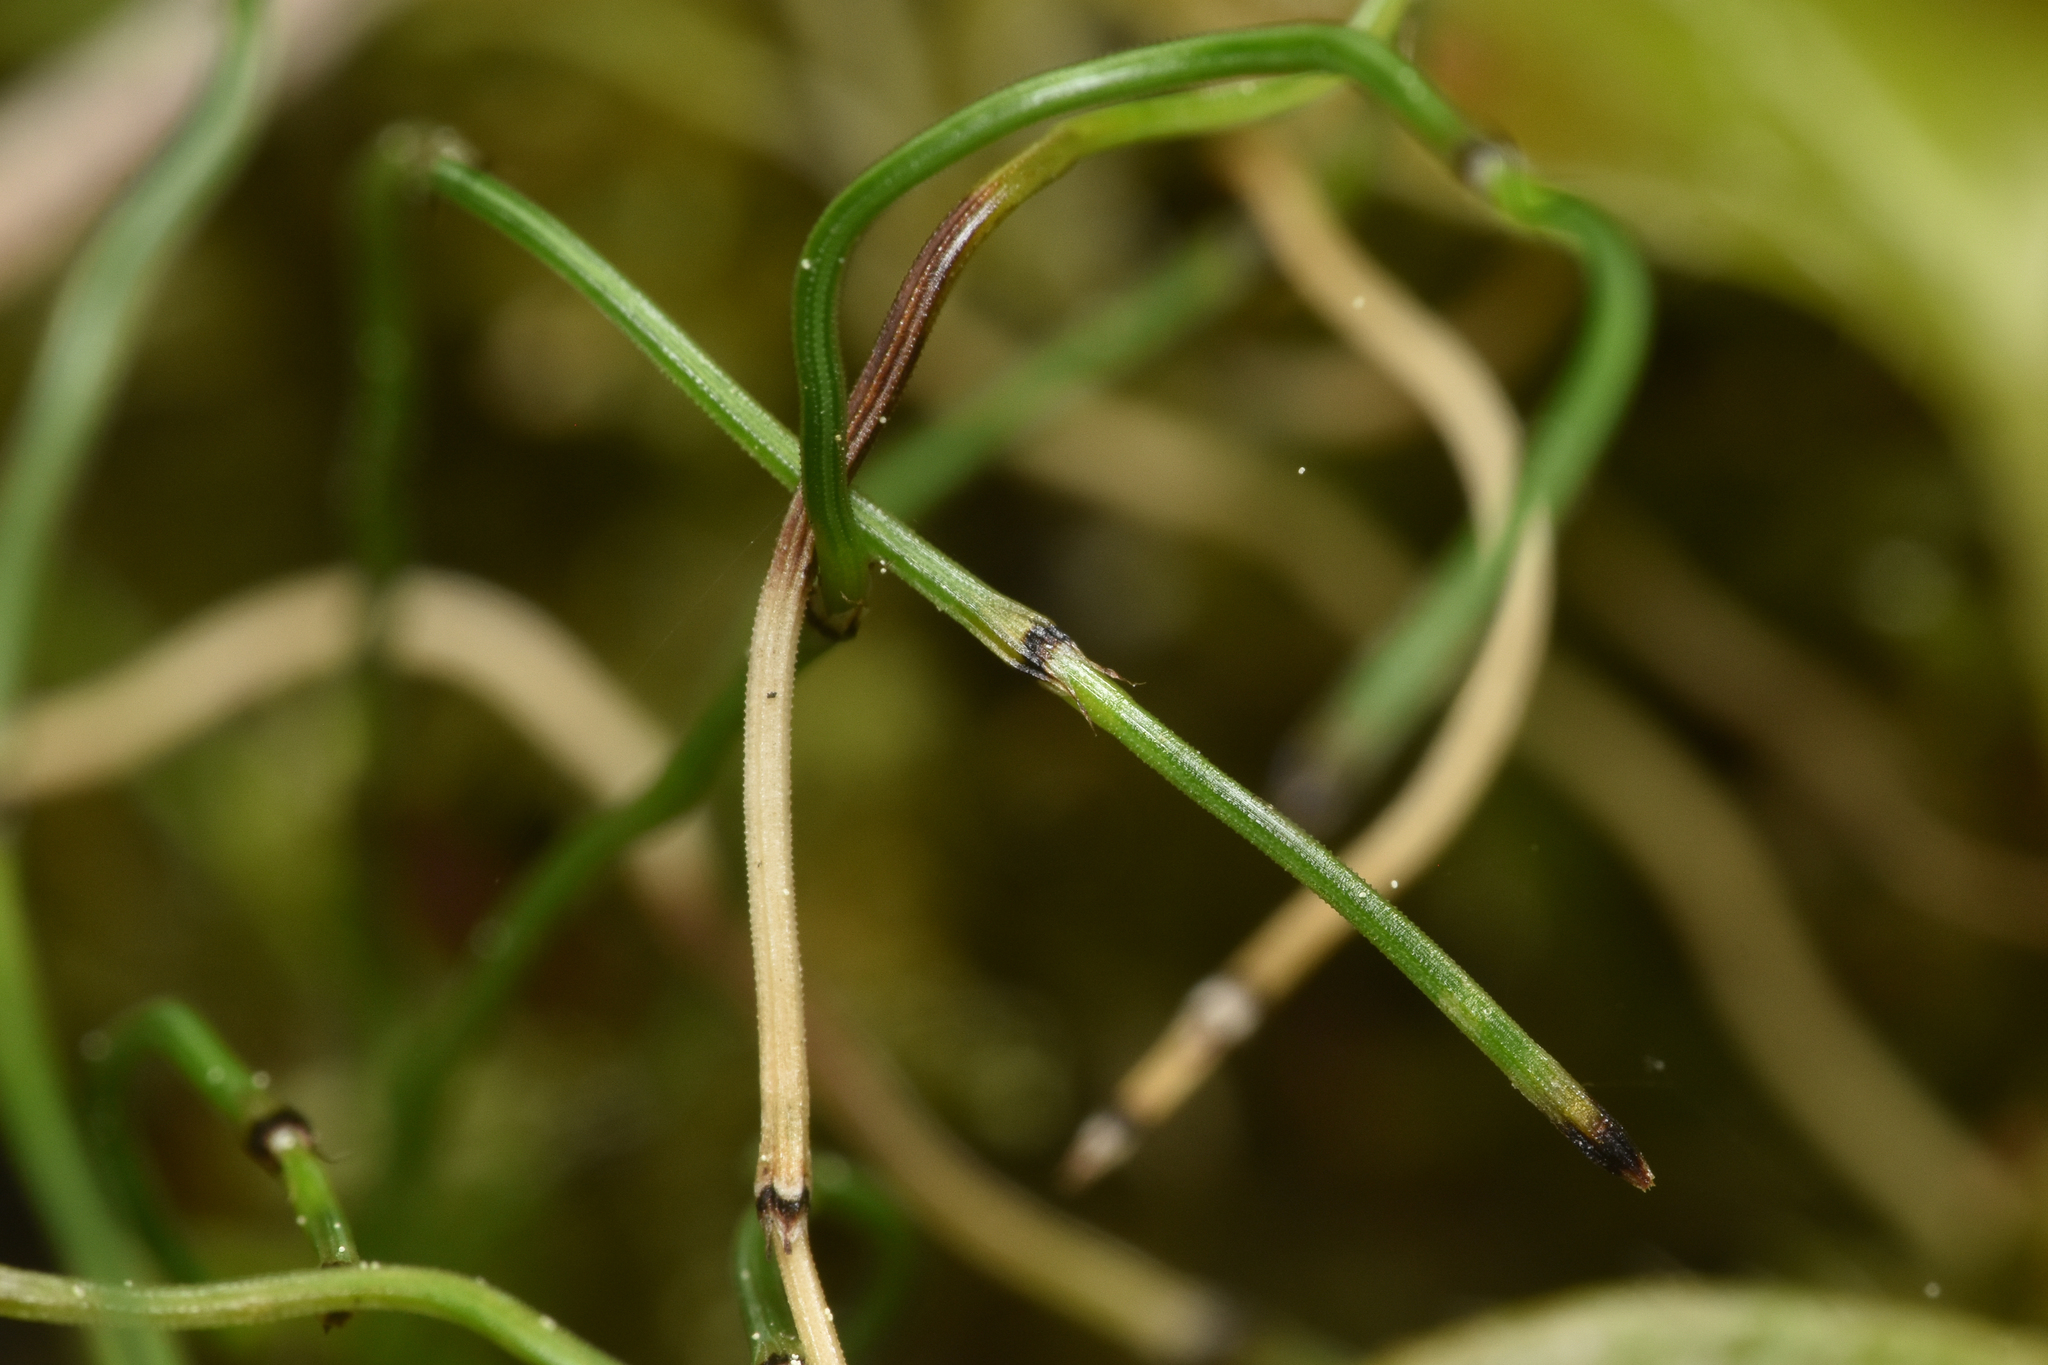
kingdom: Plantae
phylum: Tracheophyta
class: Polypodiopsida
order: Equisetales
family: Equisetaceae
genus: Equisetum
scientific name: Equisetum scirpoides
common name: Delicate horsetail
